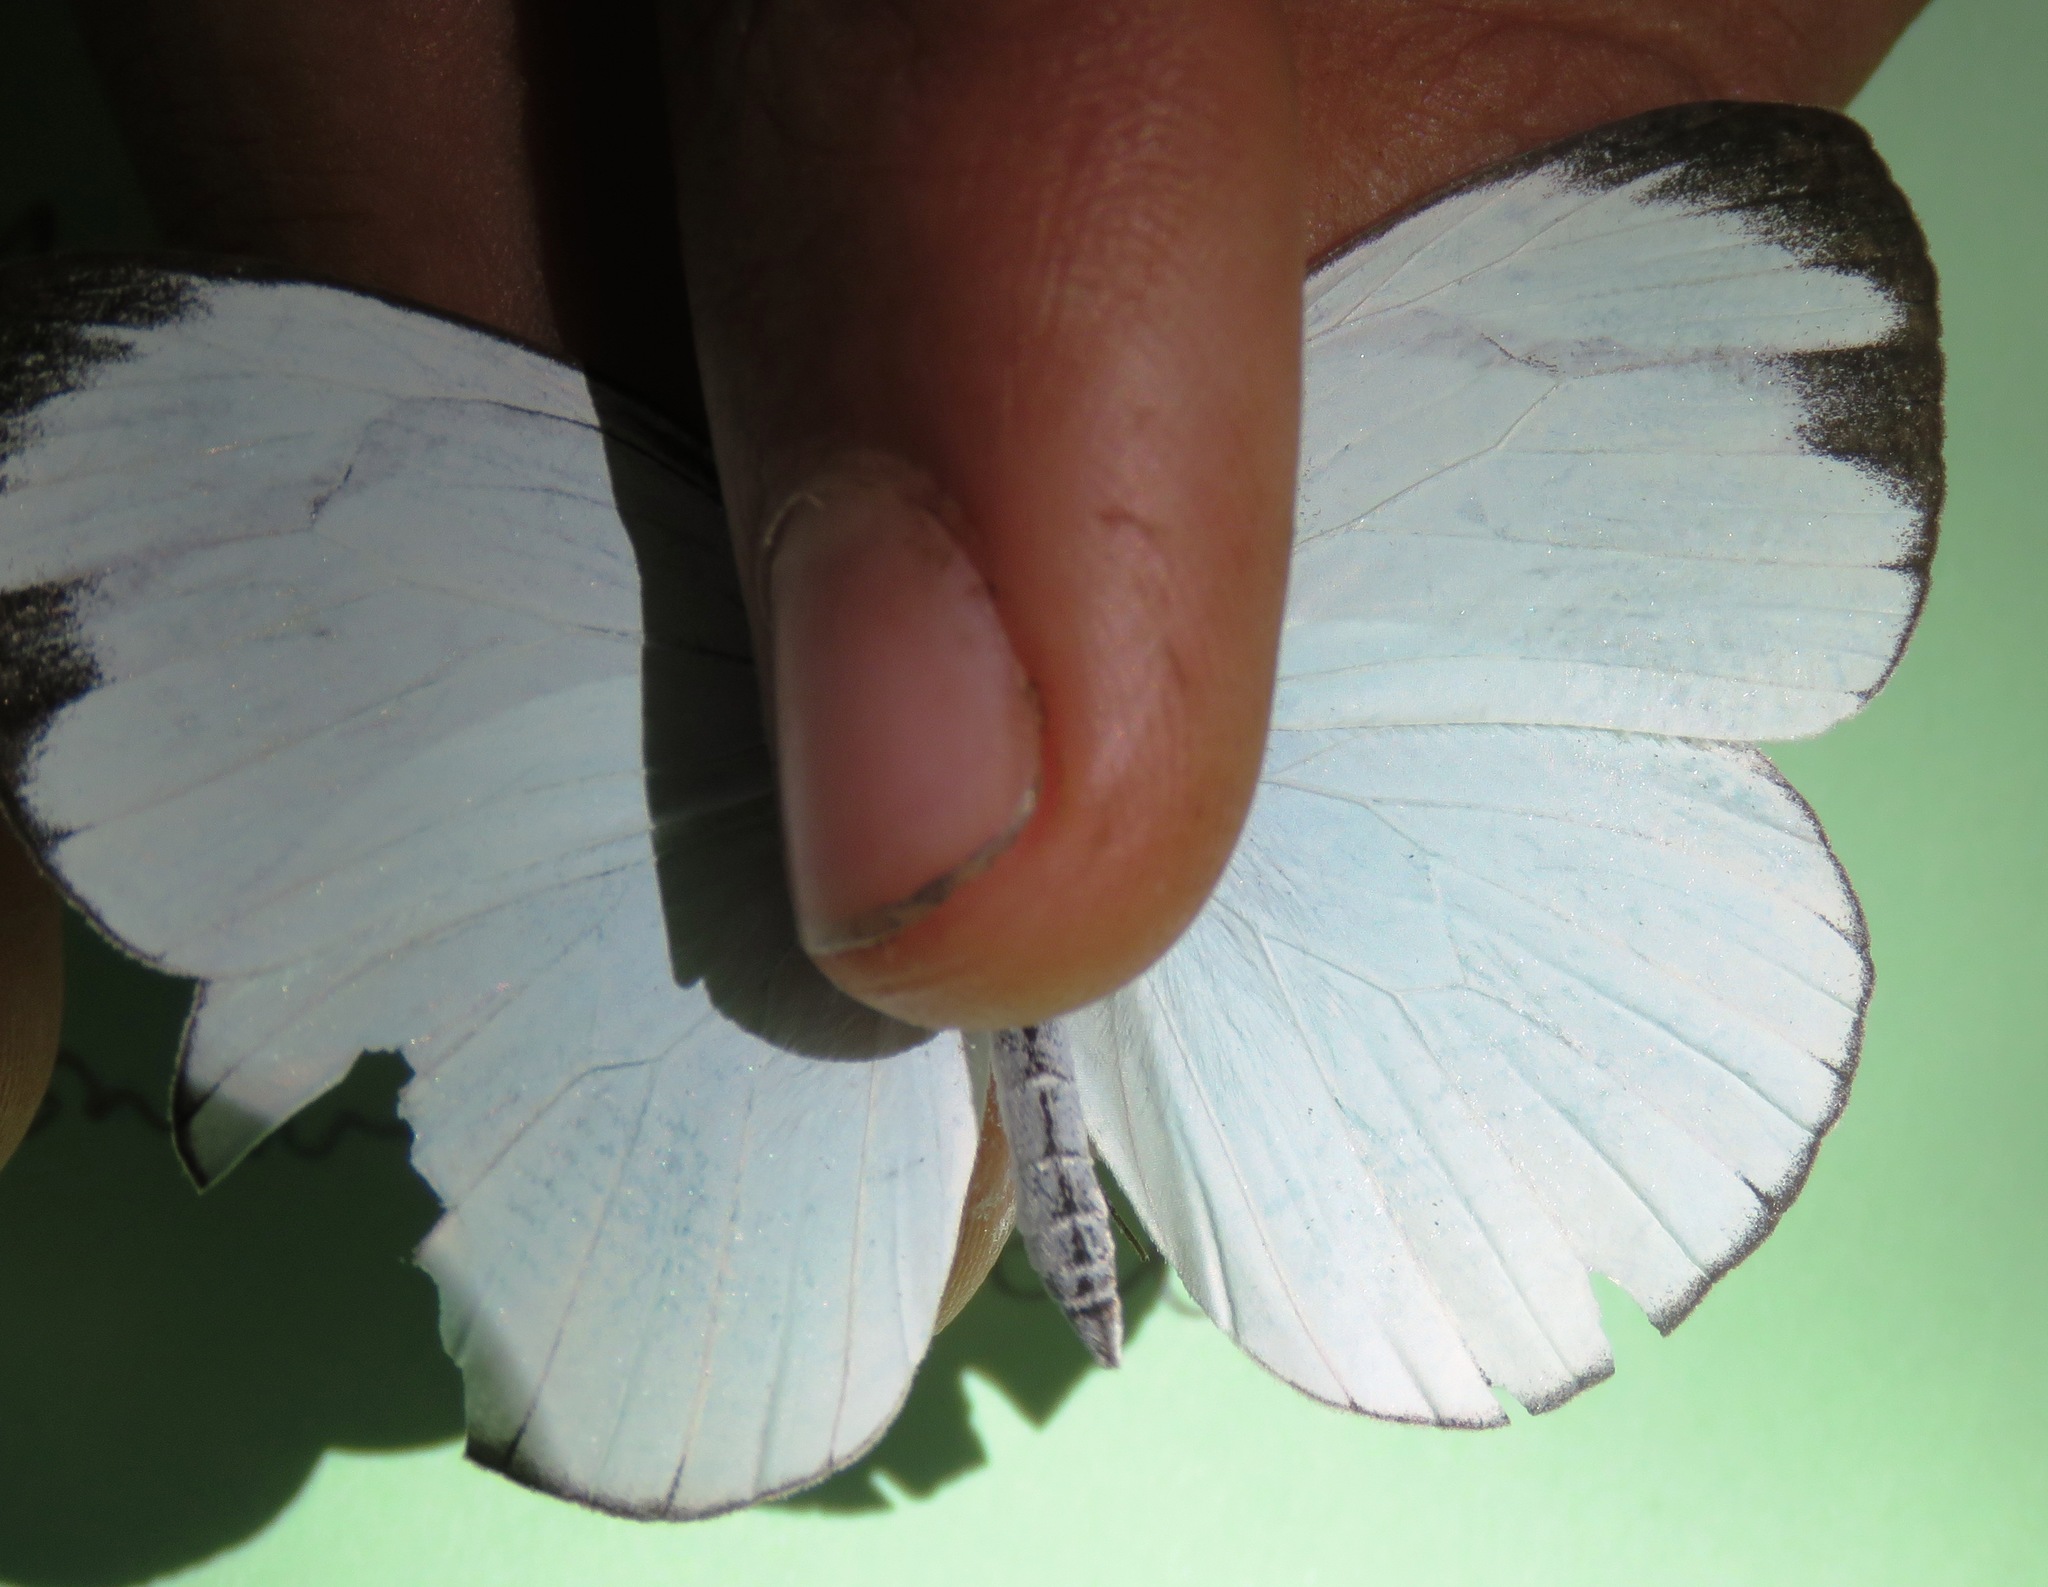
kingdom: Animalia
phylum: Arthropoda
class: Insecta
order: Lepidoptera
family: Pieridae
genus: Itaballia
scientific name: Itaballia demophile
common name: Cross-barred white
